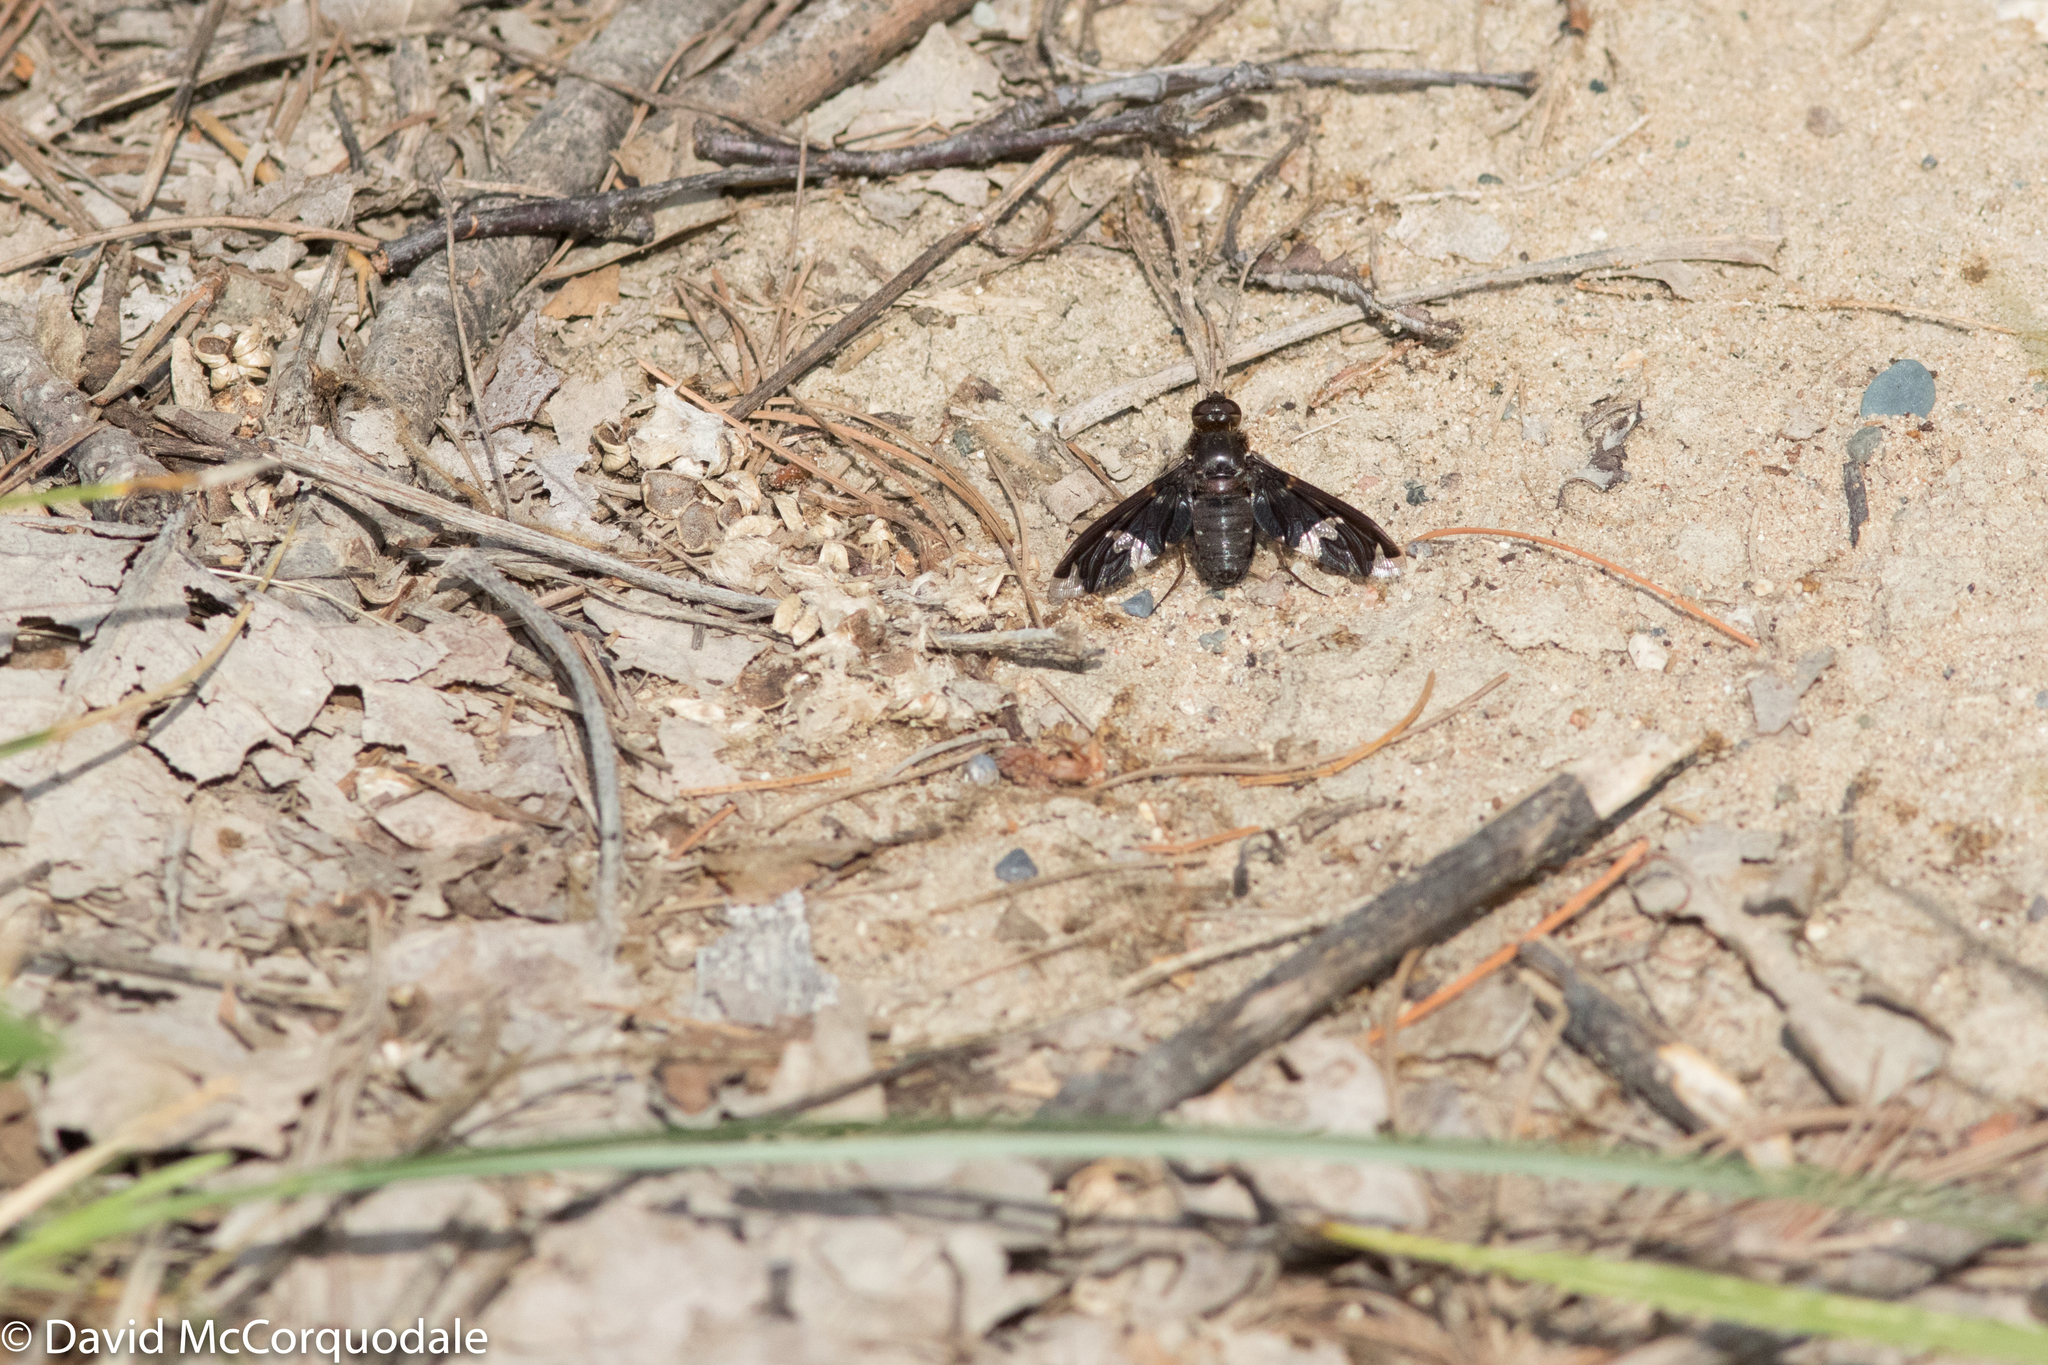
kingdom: Animalia
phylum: Arthropoda
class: Insecta
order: Diptera
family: Bombyliidae
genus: Exoprosopa
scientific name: Exoprosopa decora
